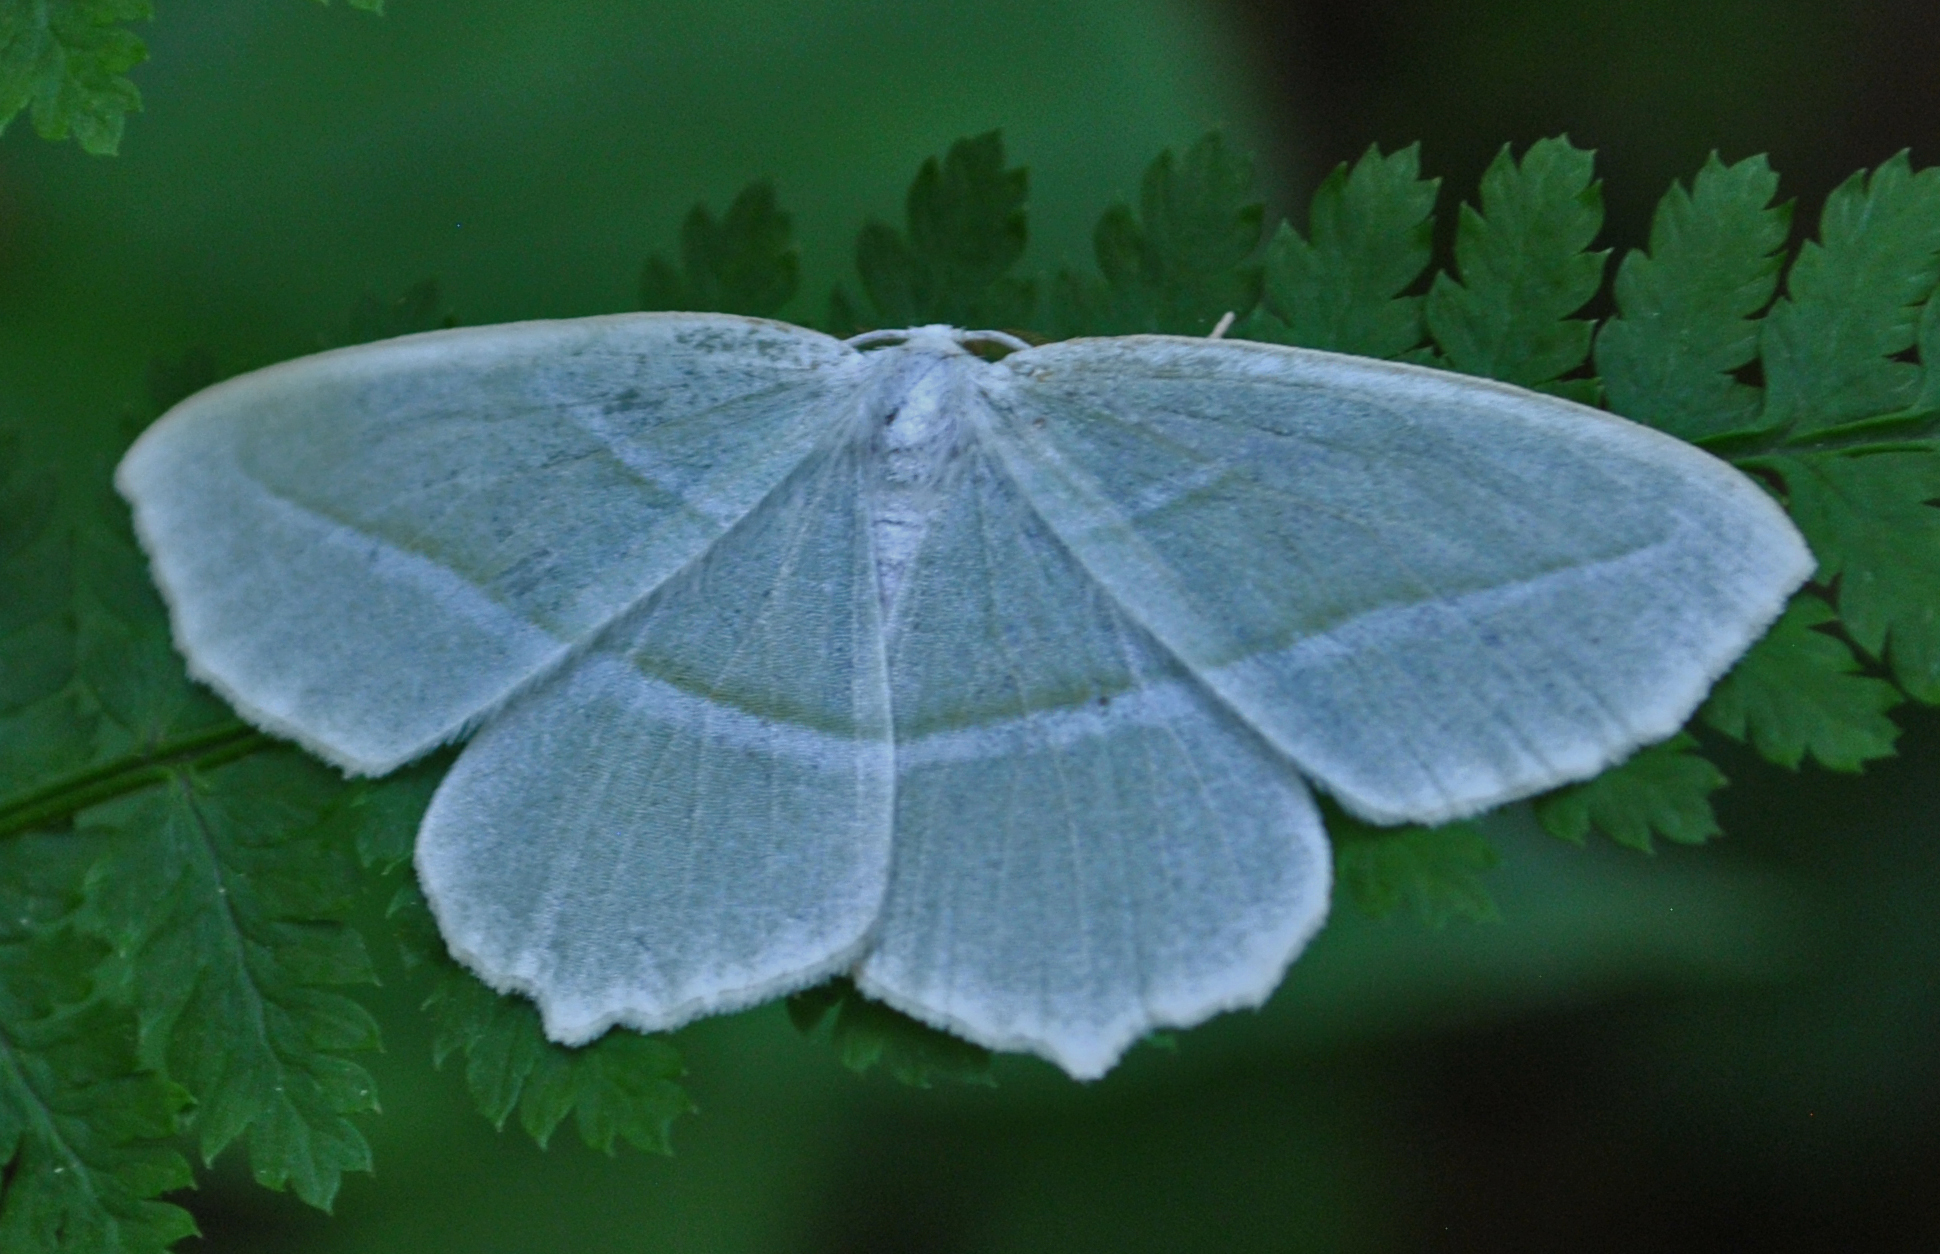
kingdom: Animalia
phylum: Arthropoda
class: Insecta
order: Lepidoptera
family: Geometridae
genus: Campaea
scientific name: Campaea perlata
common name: Fringed looper
